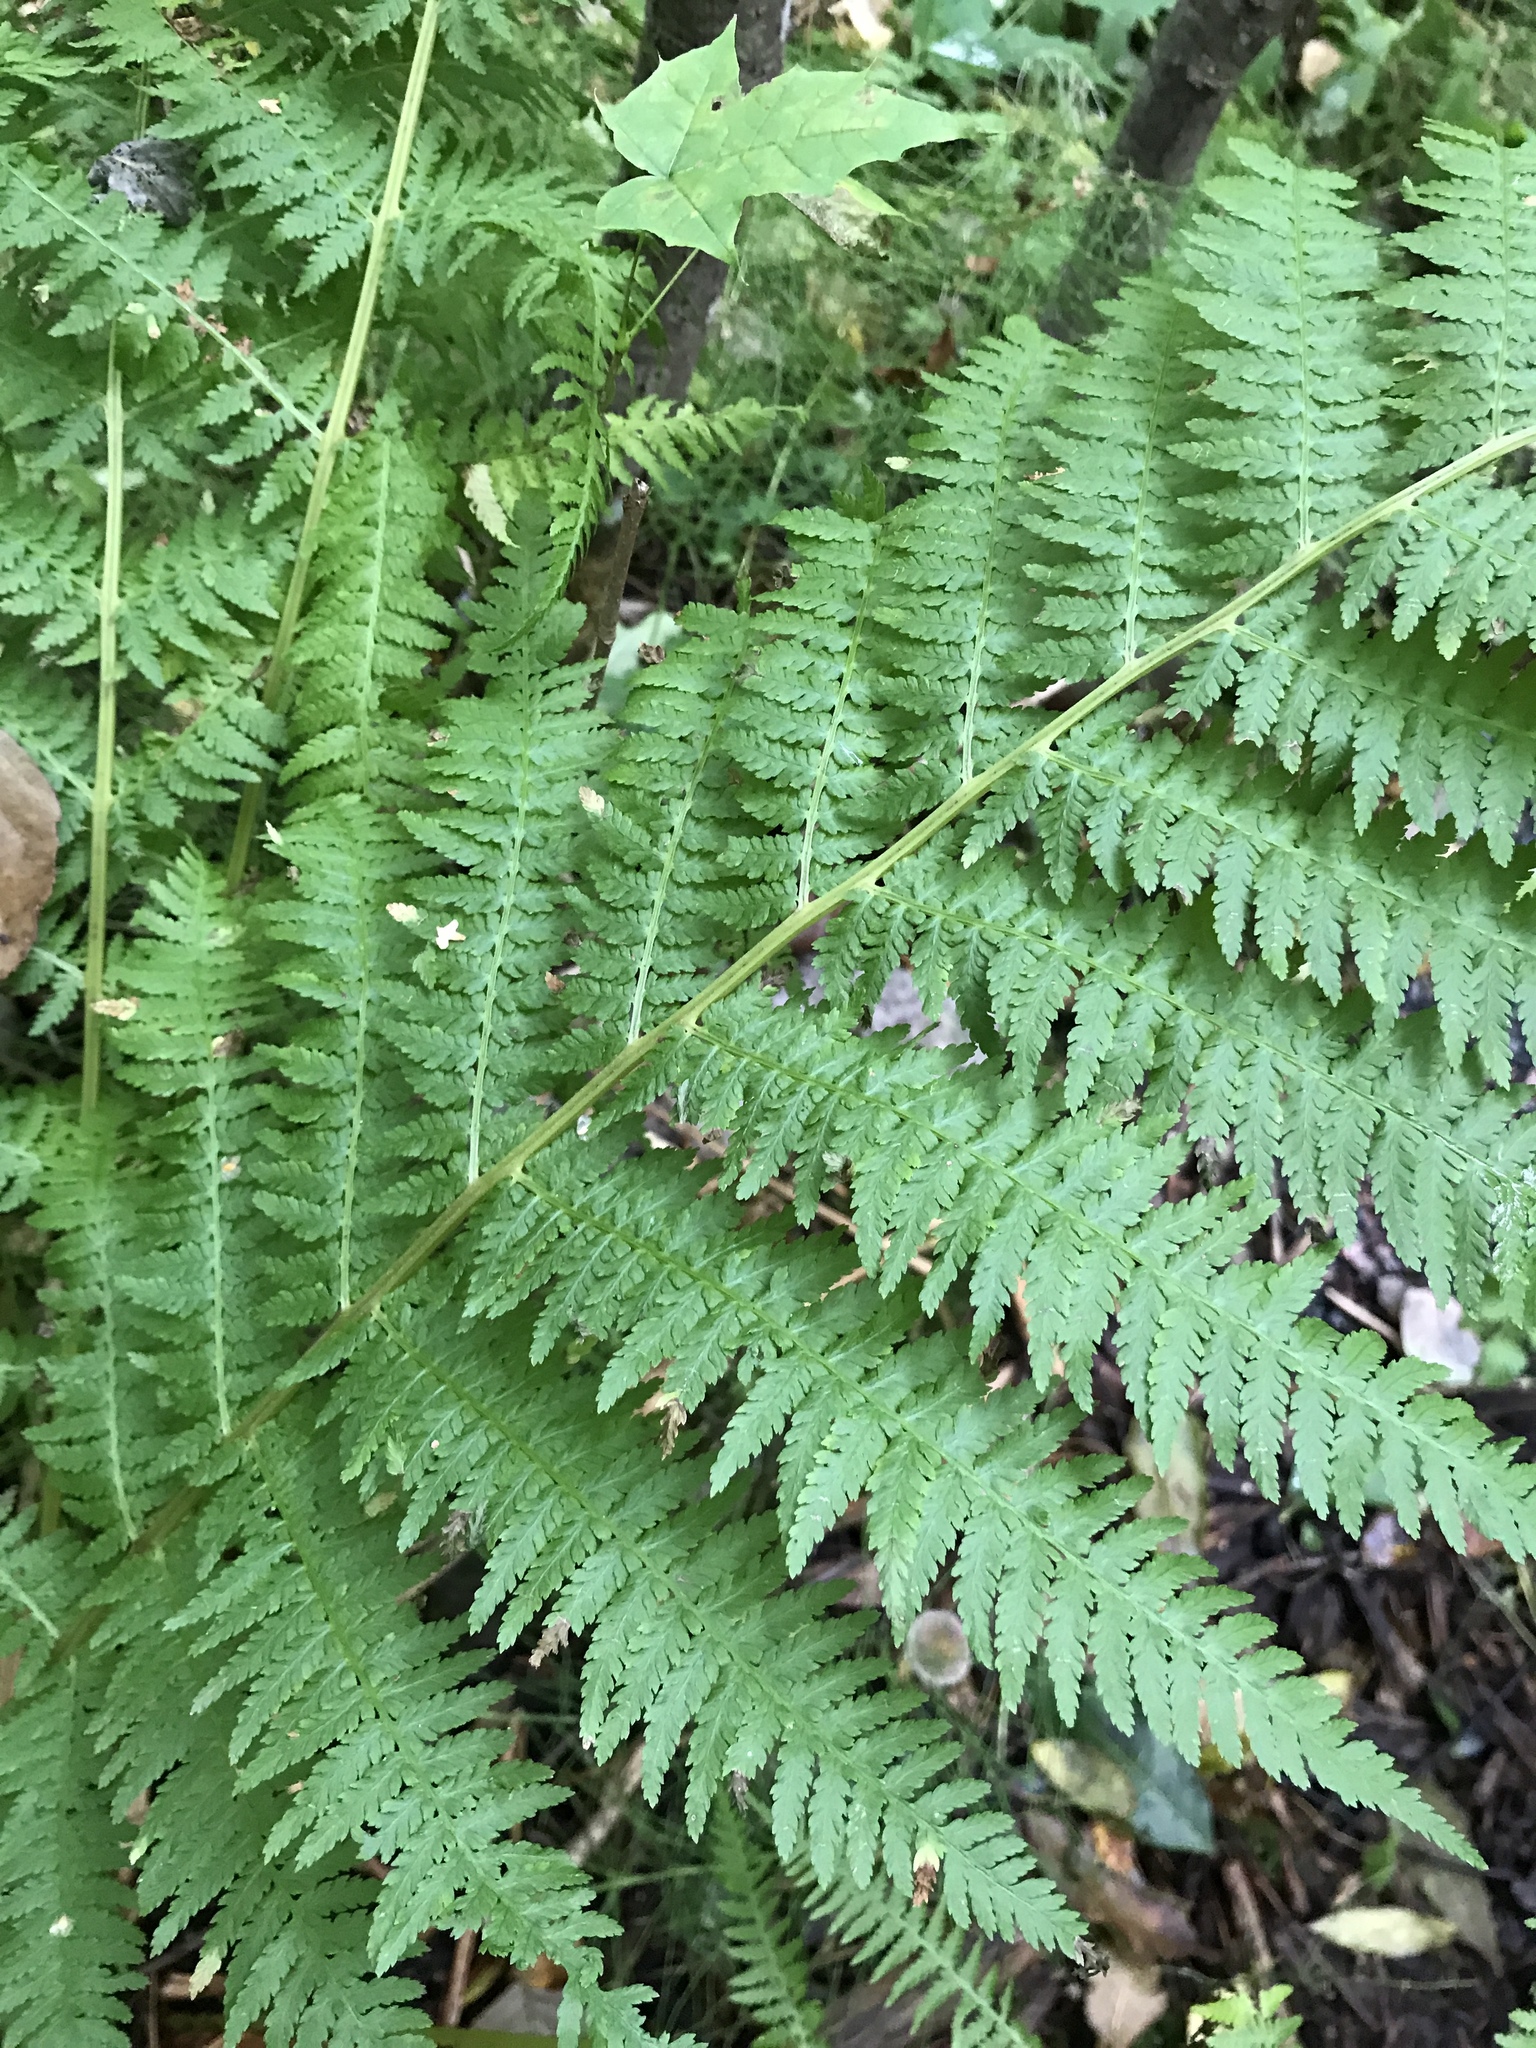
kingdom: Plantae
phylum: Tracheophyta
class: Polypodiopsida
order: Polypodiales
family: Athyriaceae
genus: Athyrium
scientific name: Athyrium filix-femina
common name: Lady fern
